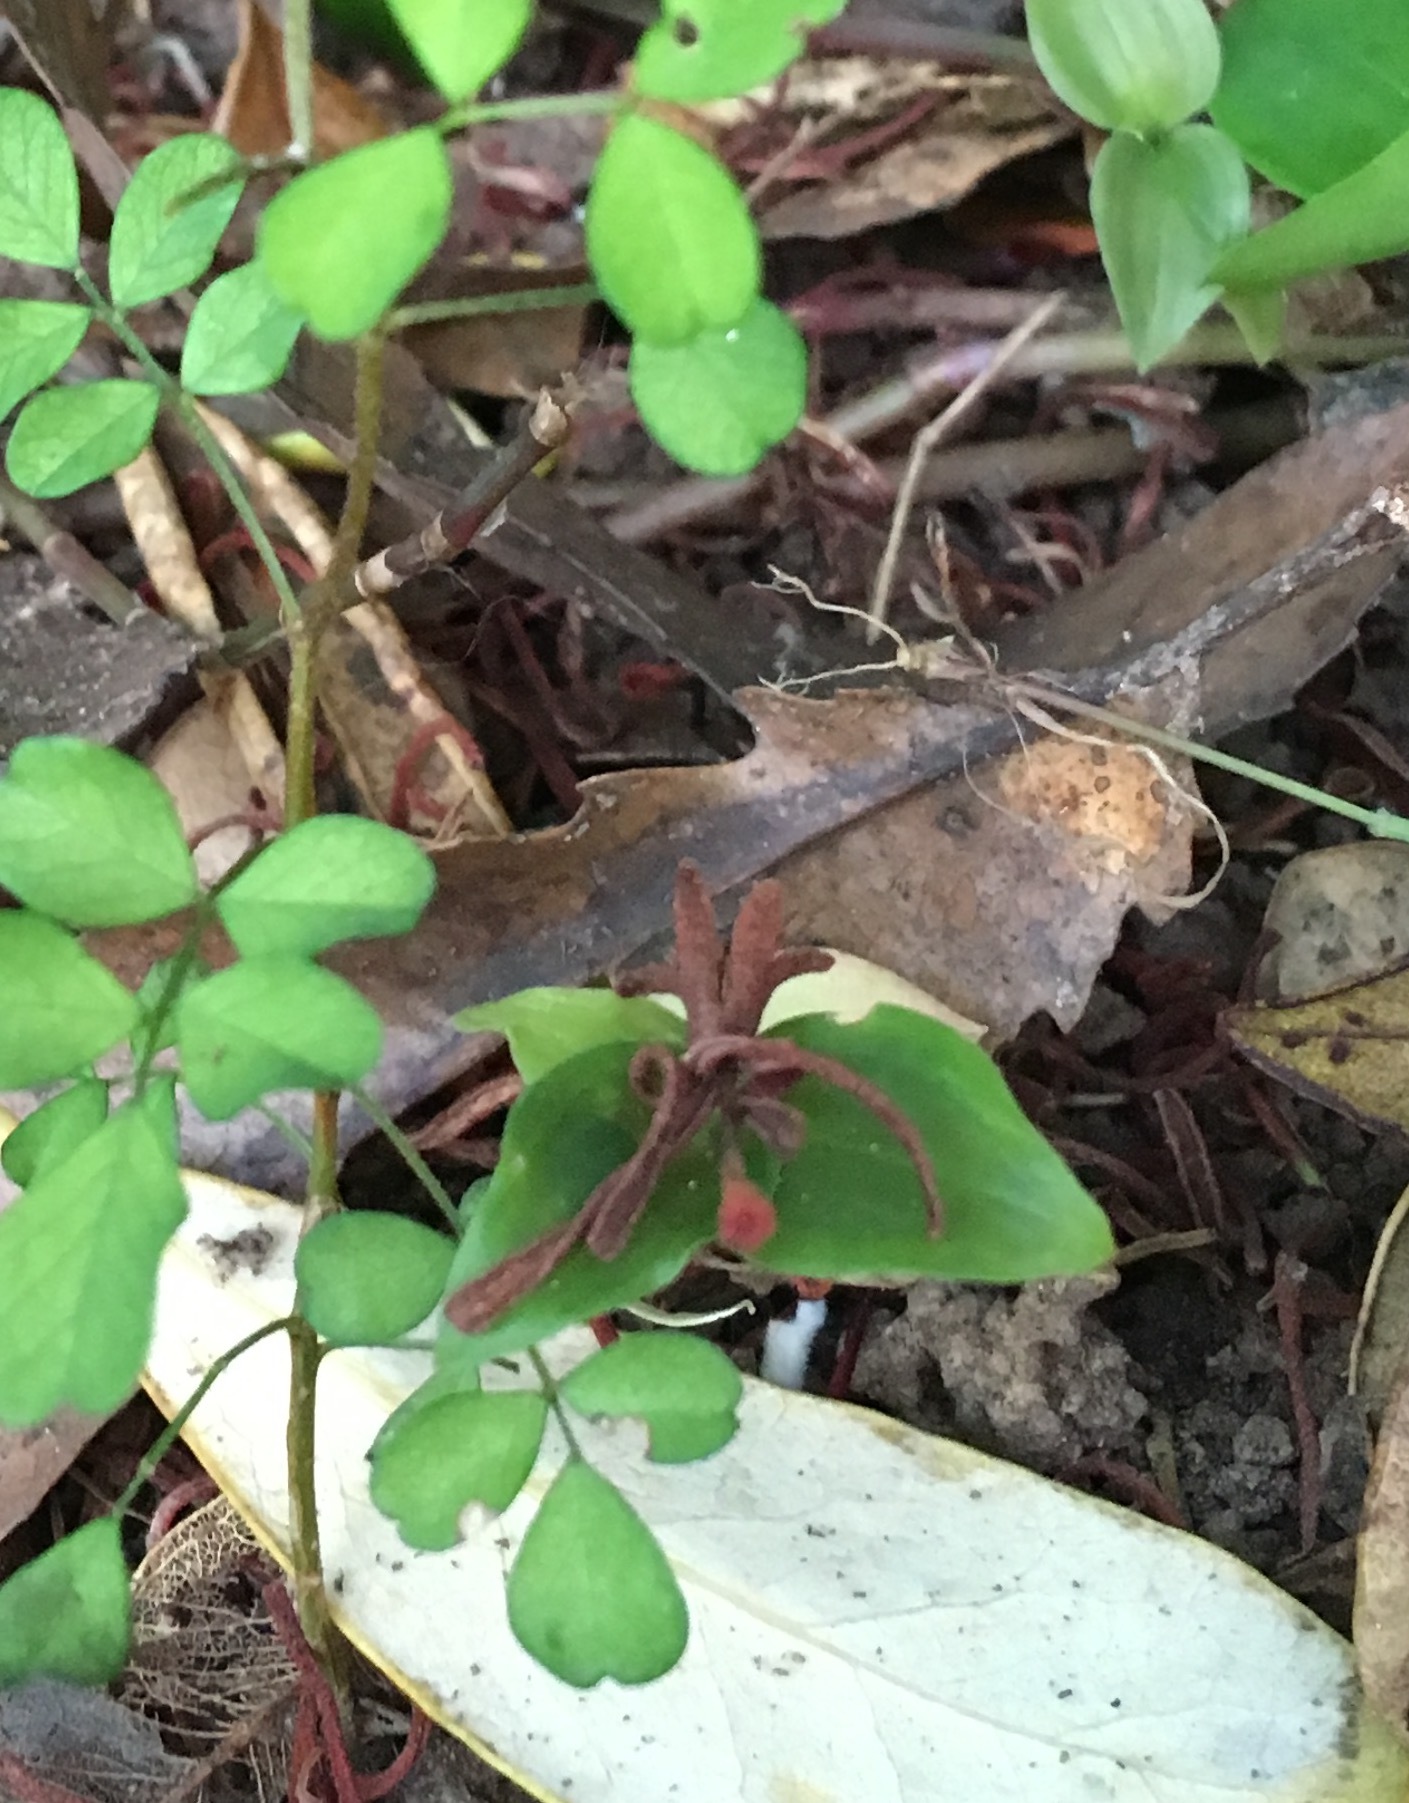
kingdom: Plantae
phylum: Tracheophyta
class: Magnoliopsida
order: Proteales
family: Proteaceae
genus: Knightia
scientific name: Knightia excelsa
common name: New zealand-honeysuckle
